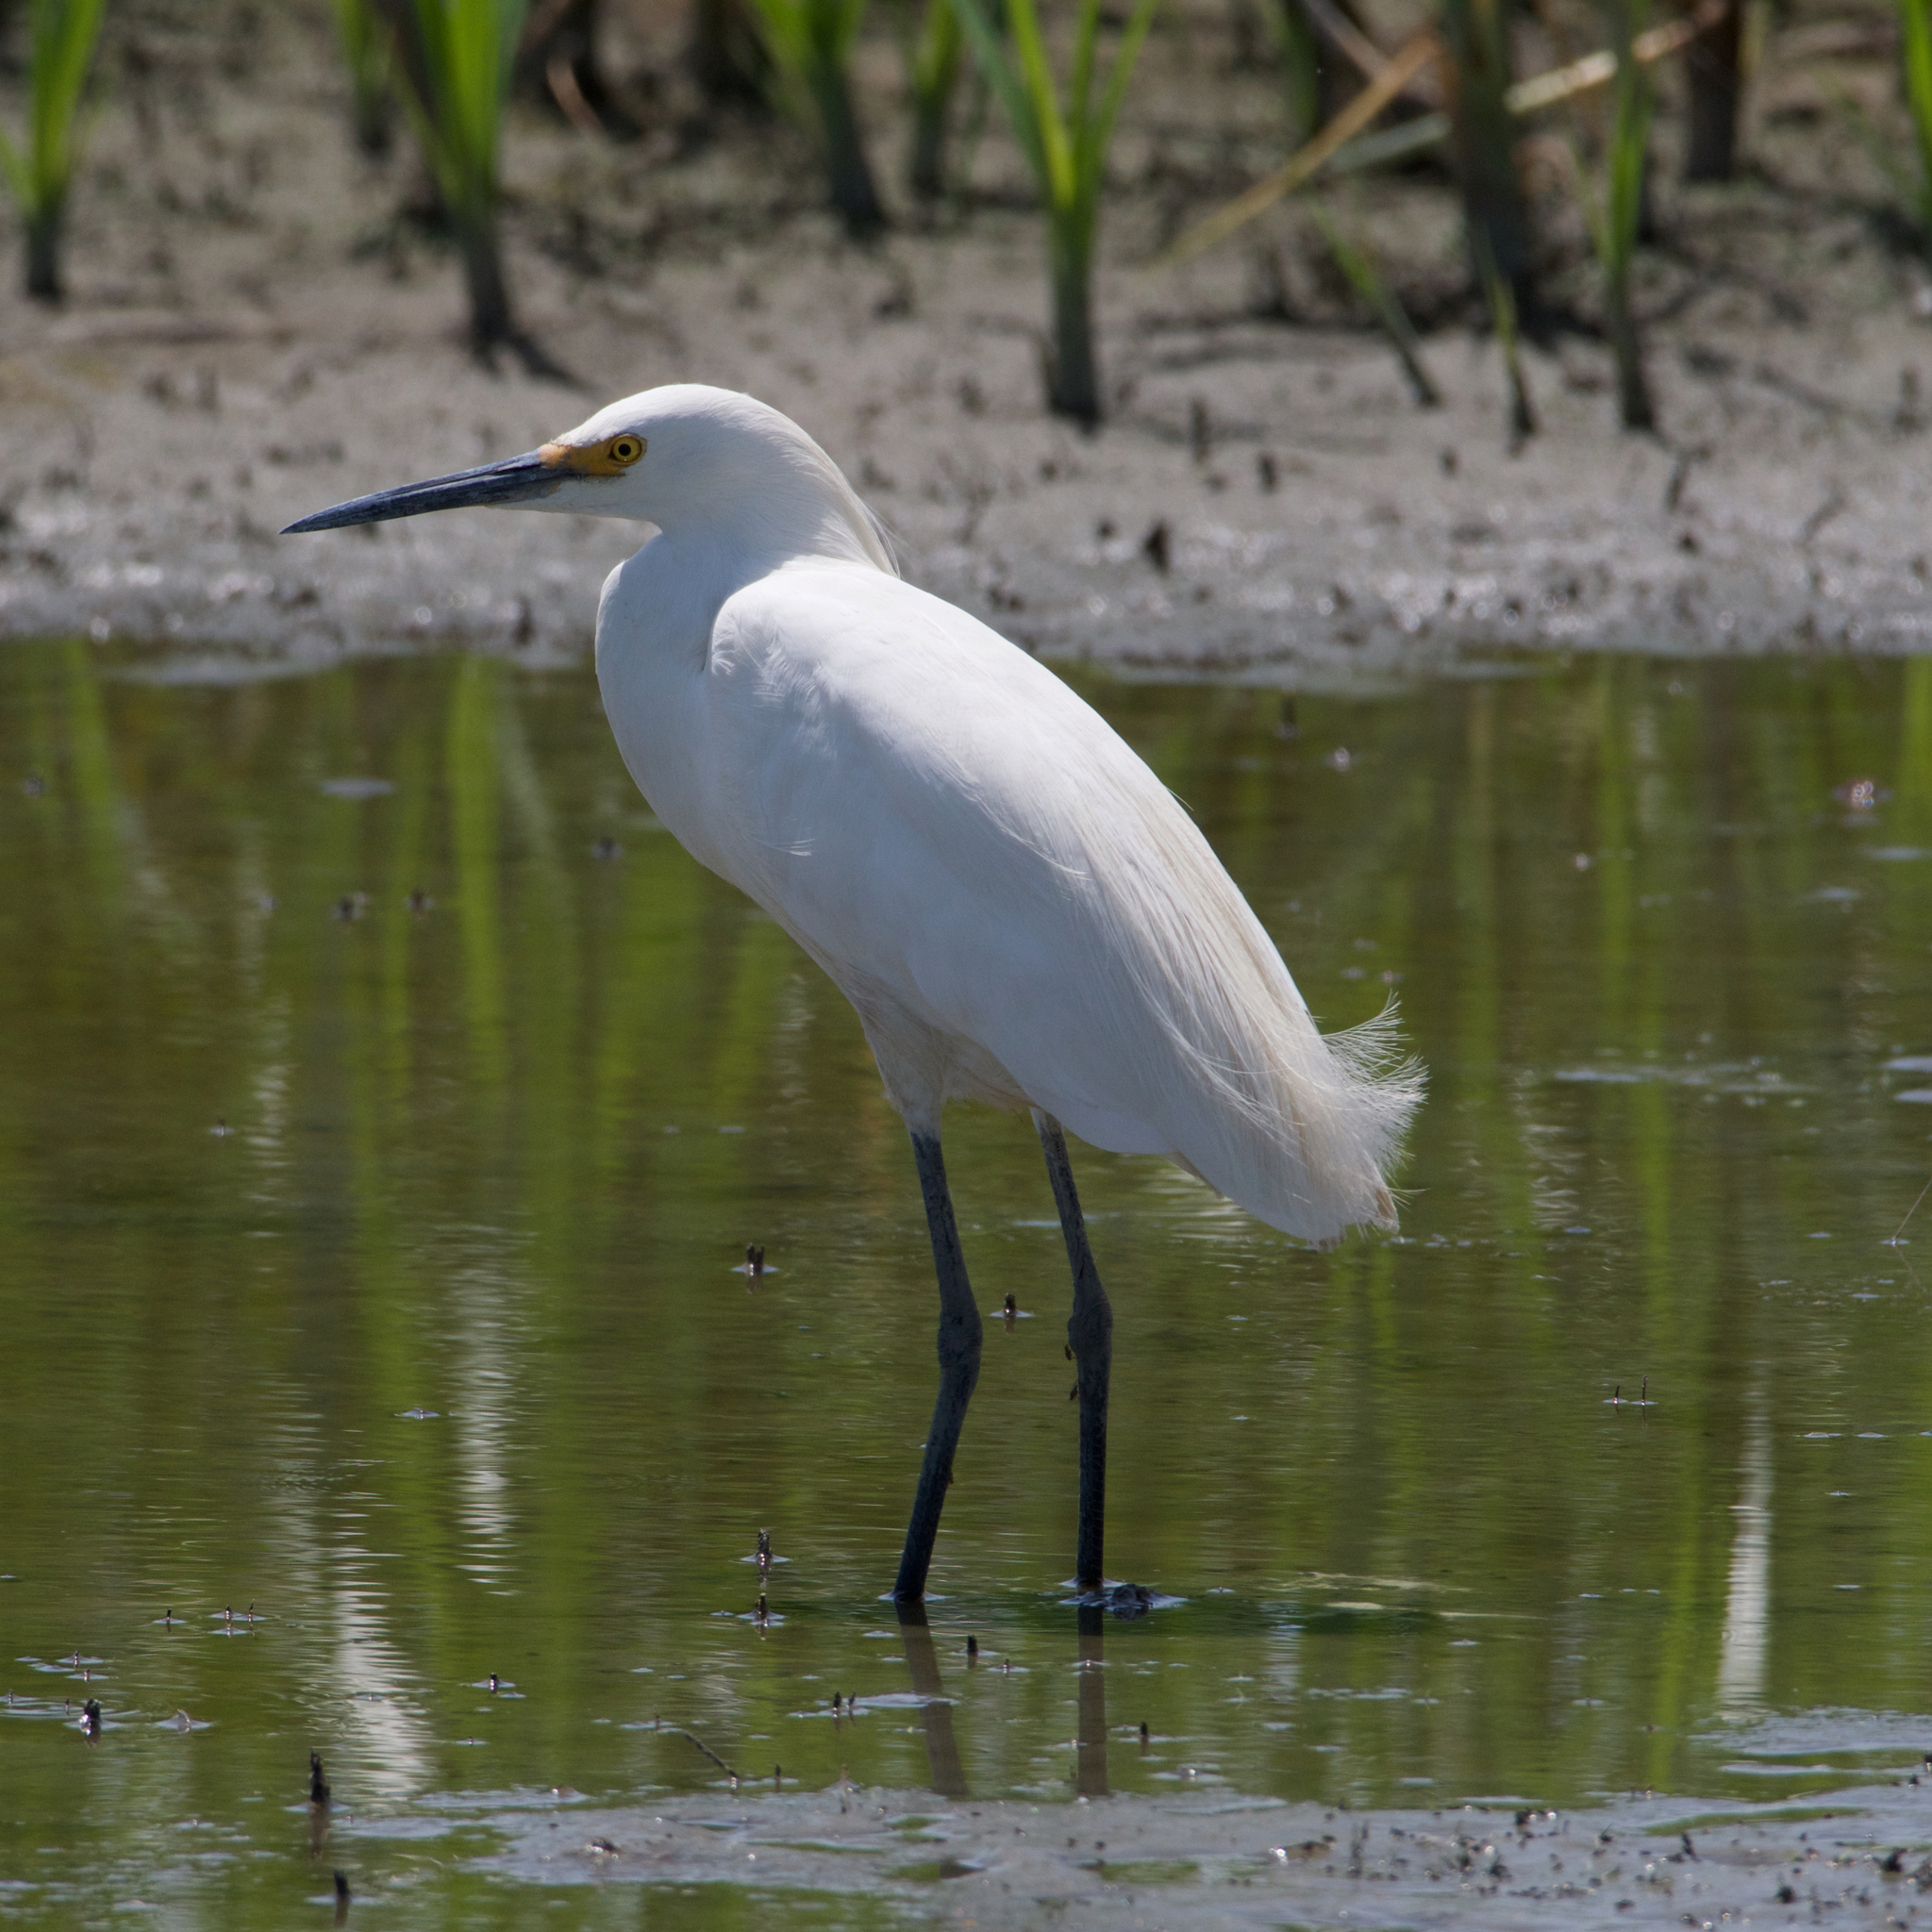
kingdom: Animalia
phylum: Chordata
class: Aves
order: Pelecaniformes
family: Ardeidae
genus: Egretta
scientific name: Egretta thula
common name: Snowy egret
